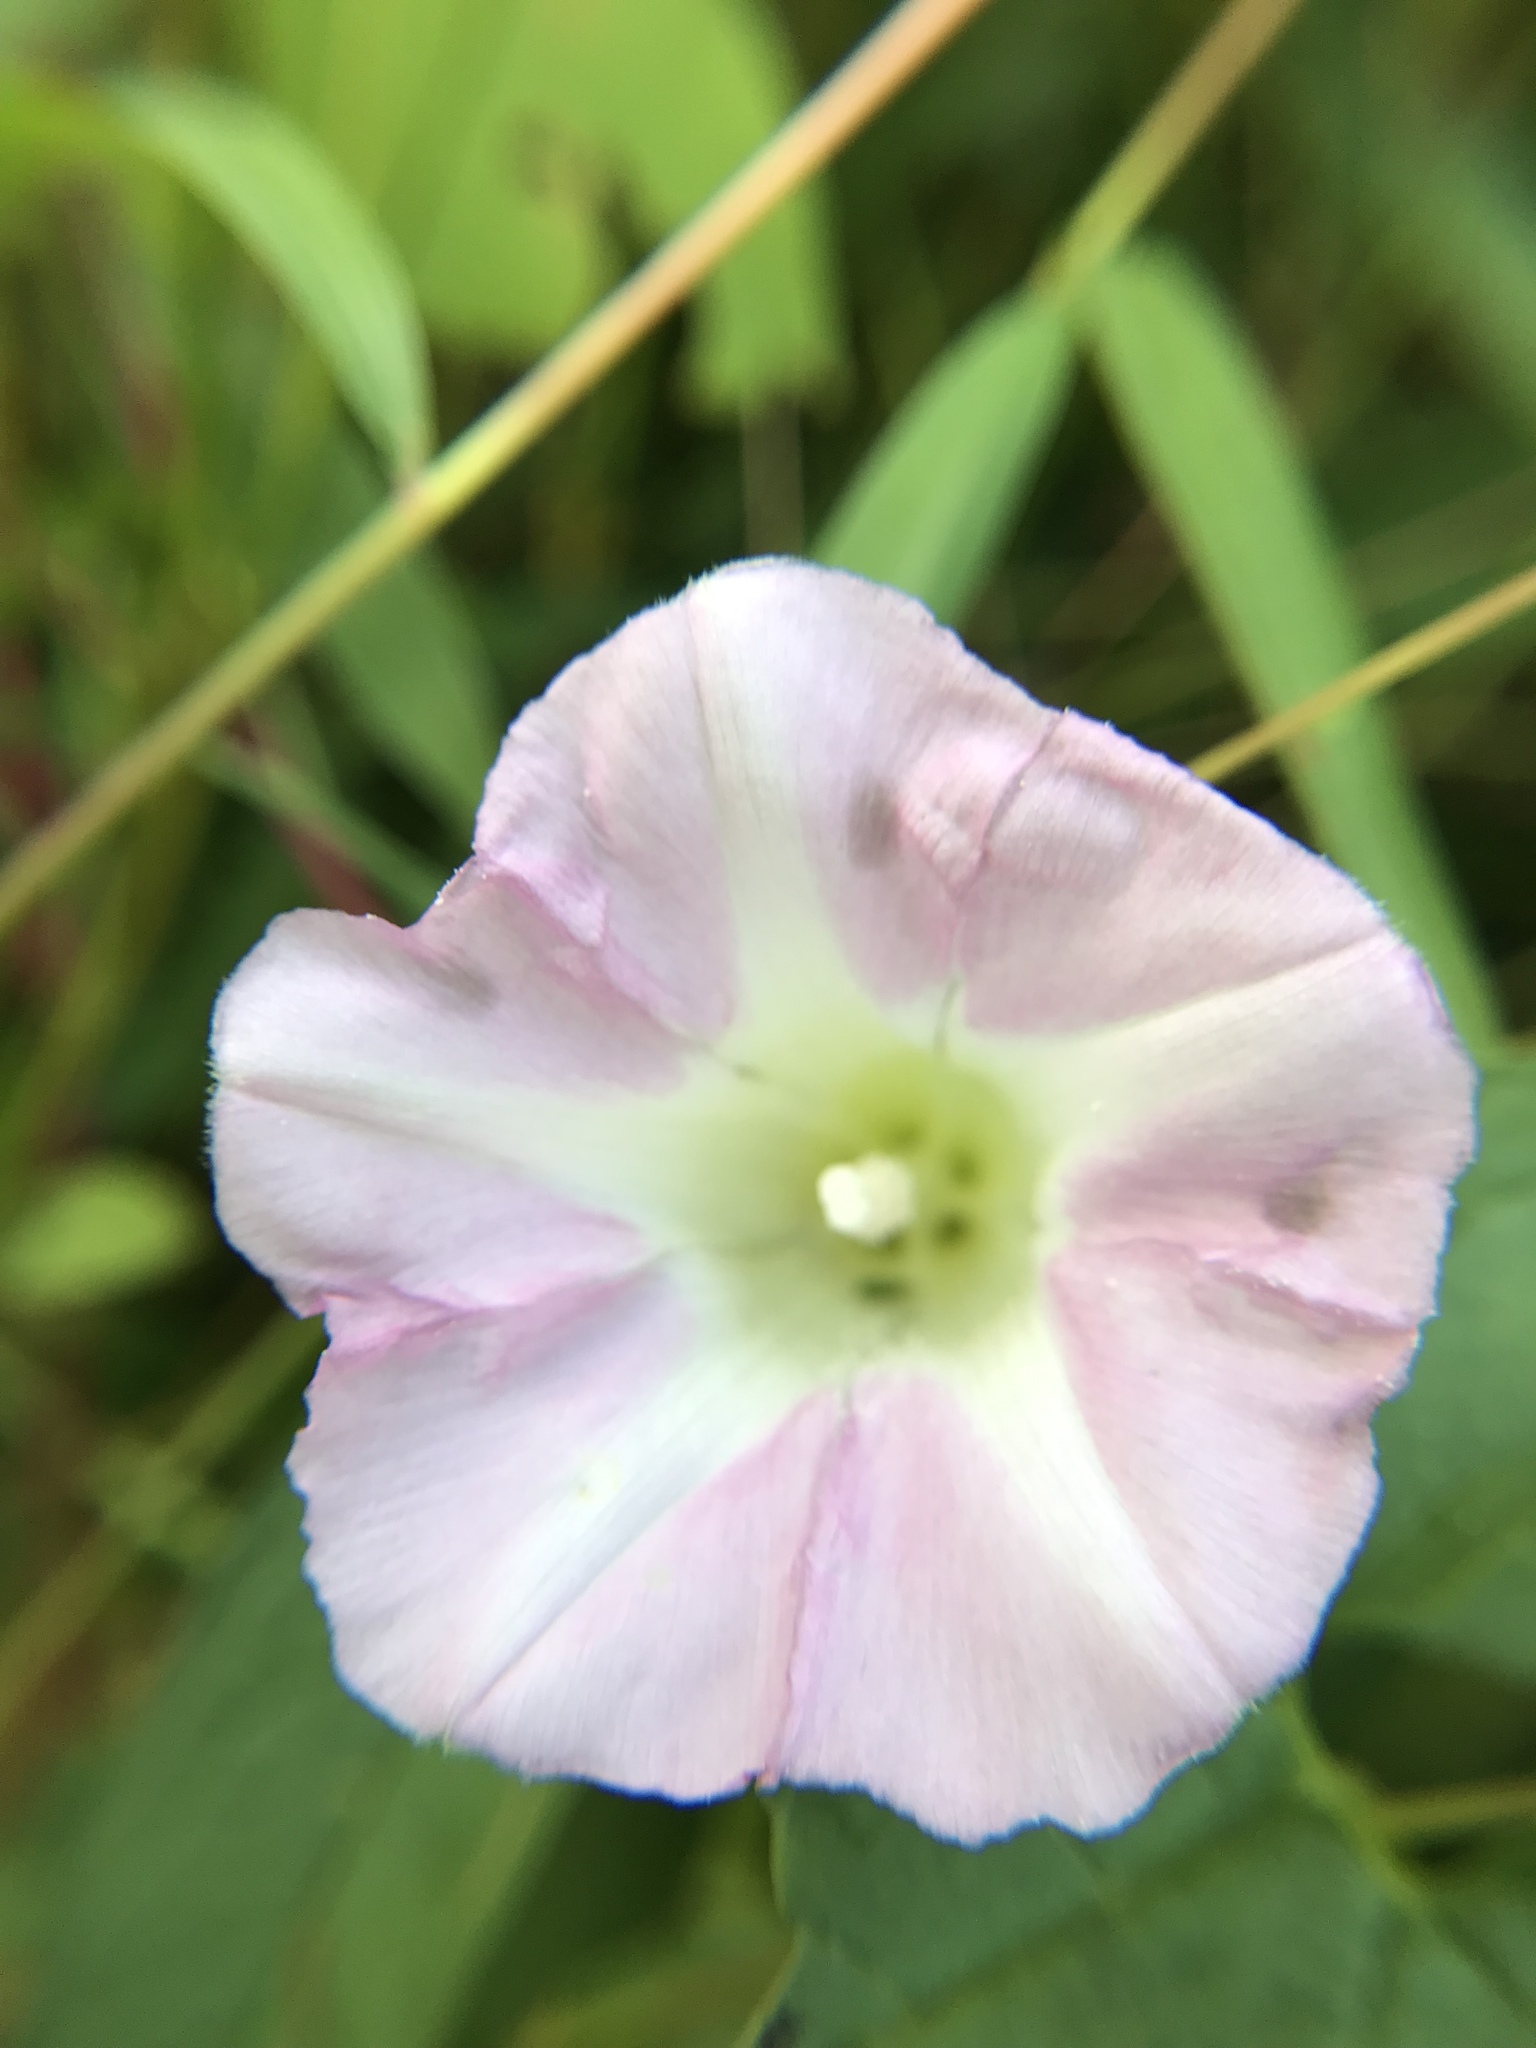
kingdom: Plantae
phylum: Tracheophyta
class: Magnoliopsida
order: Solanales
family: Convolvulaceae
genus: Convolvulus
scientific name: Convolvulus arvensis
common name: Field bindweed
